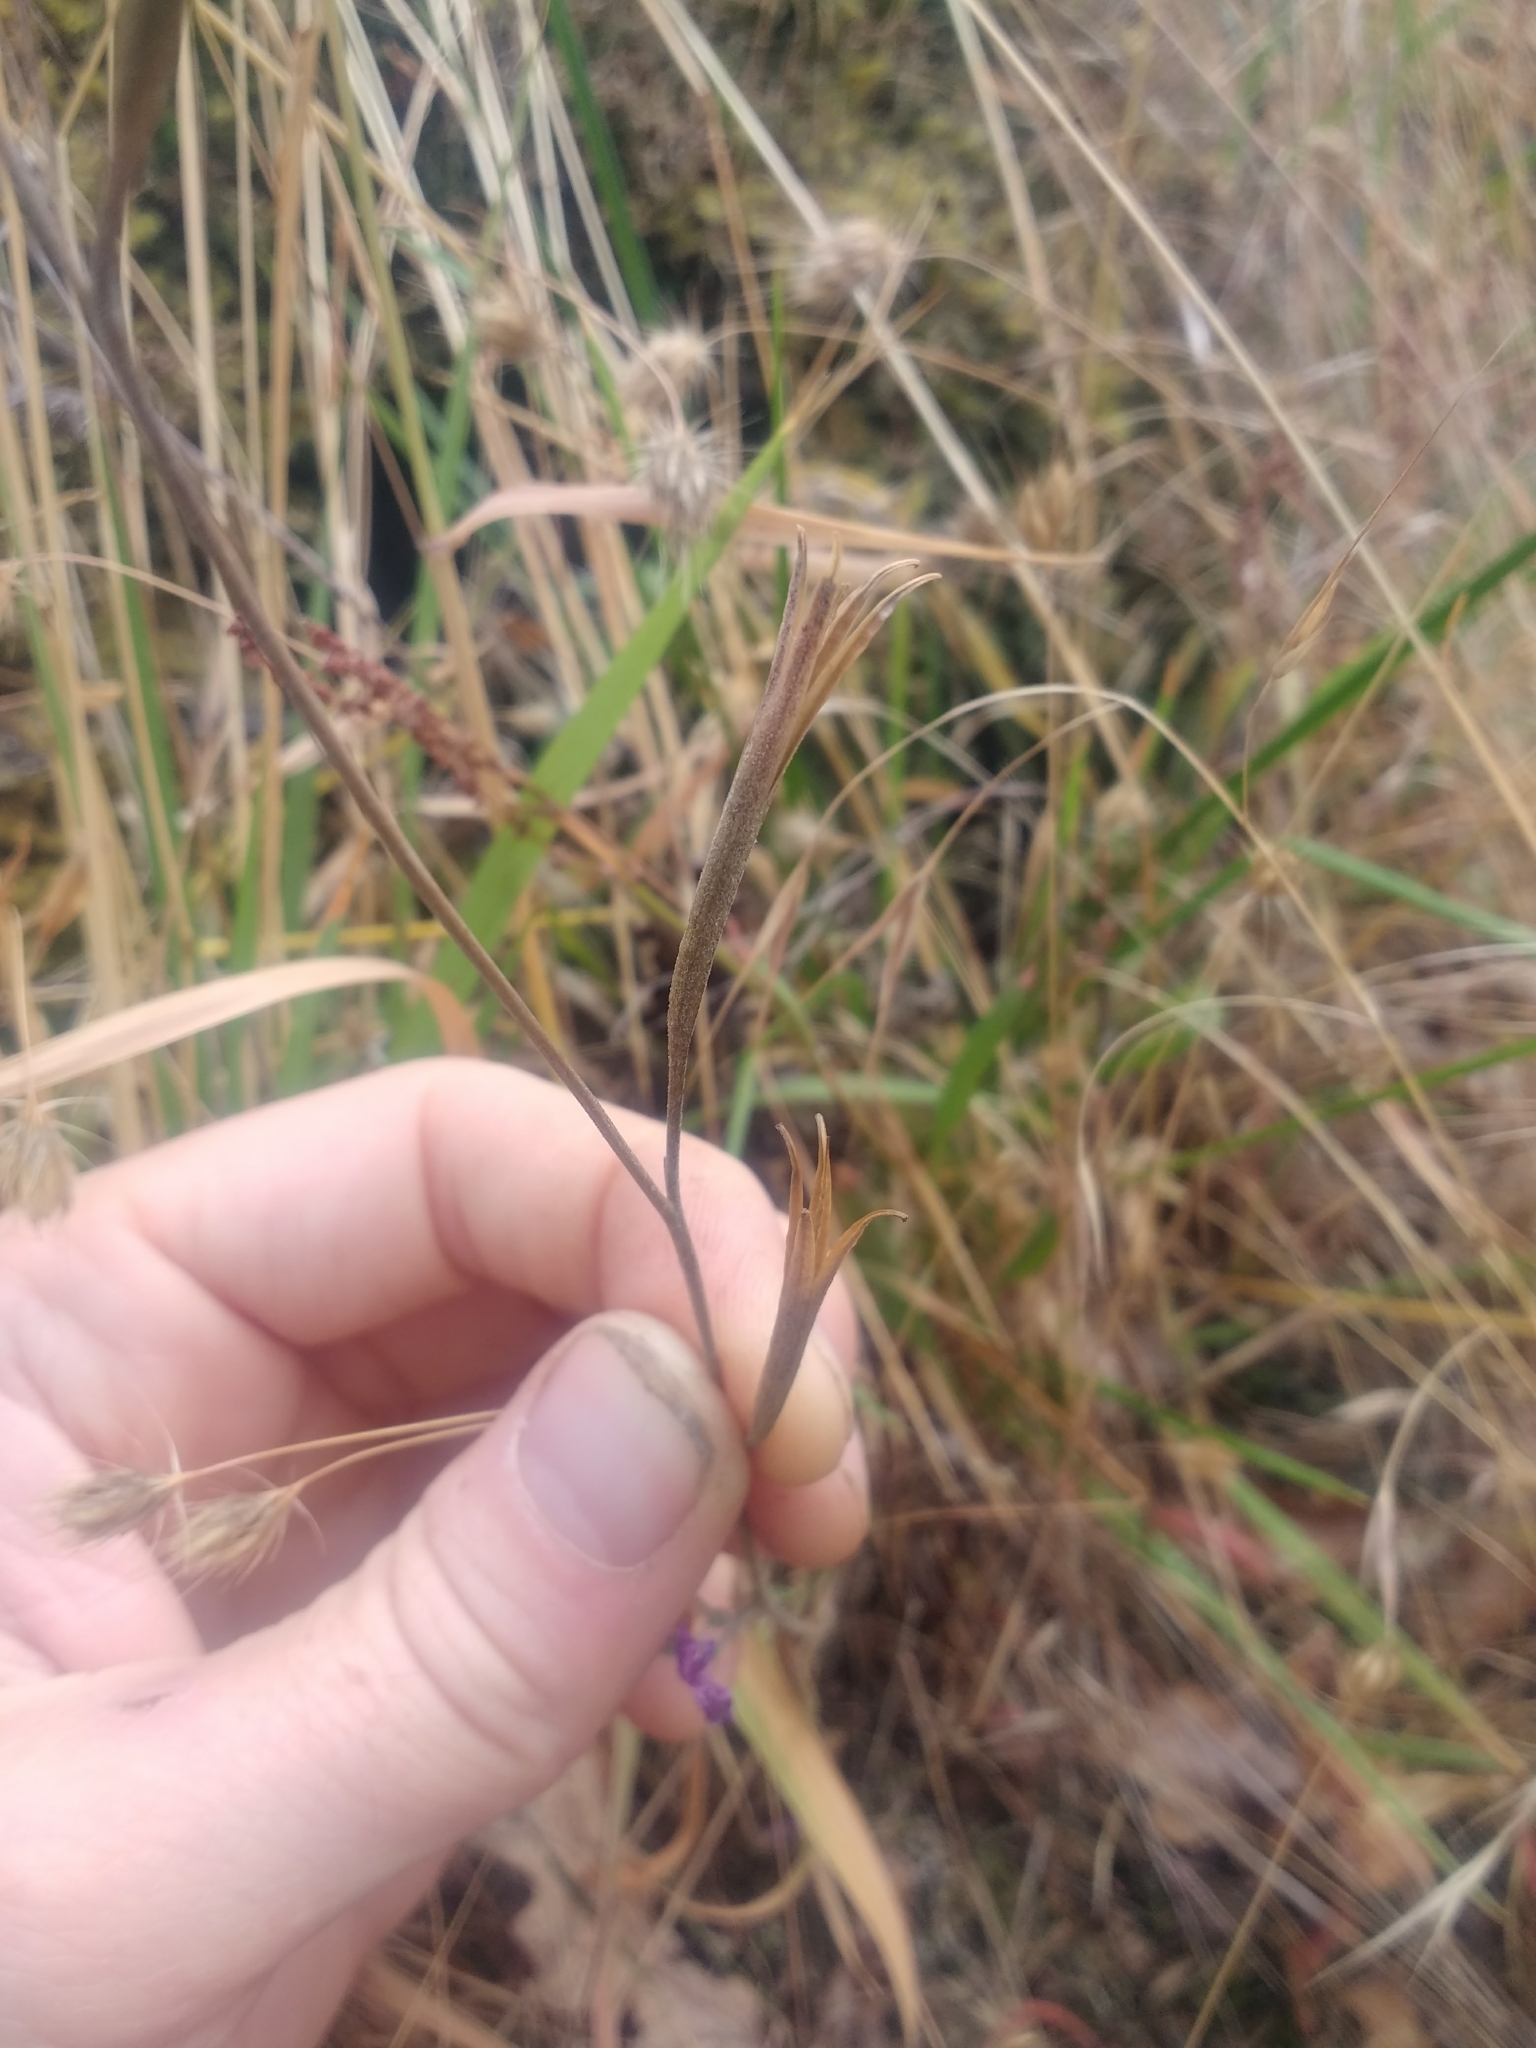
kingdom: Plantae
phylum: Tracheophyta
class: Magnoliopsida
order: Myrtales
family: Onagraceae
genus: Clarkia
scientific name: Clarkia amoena
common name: Godetia
